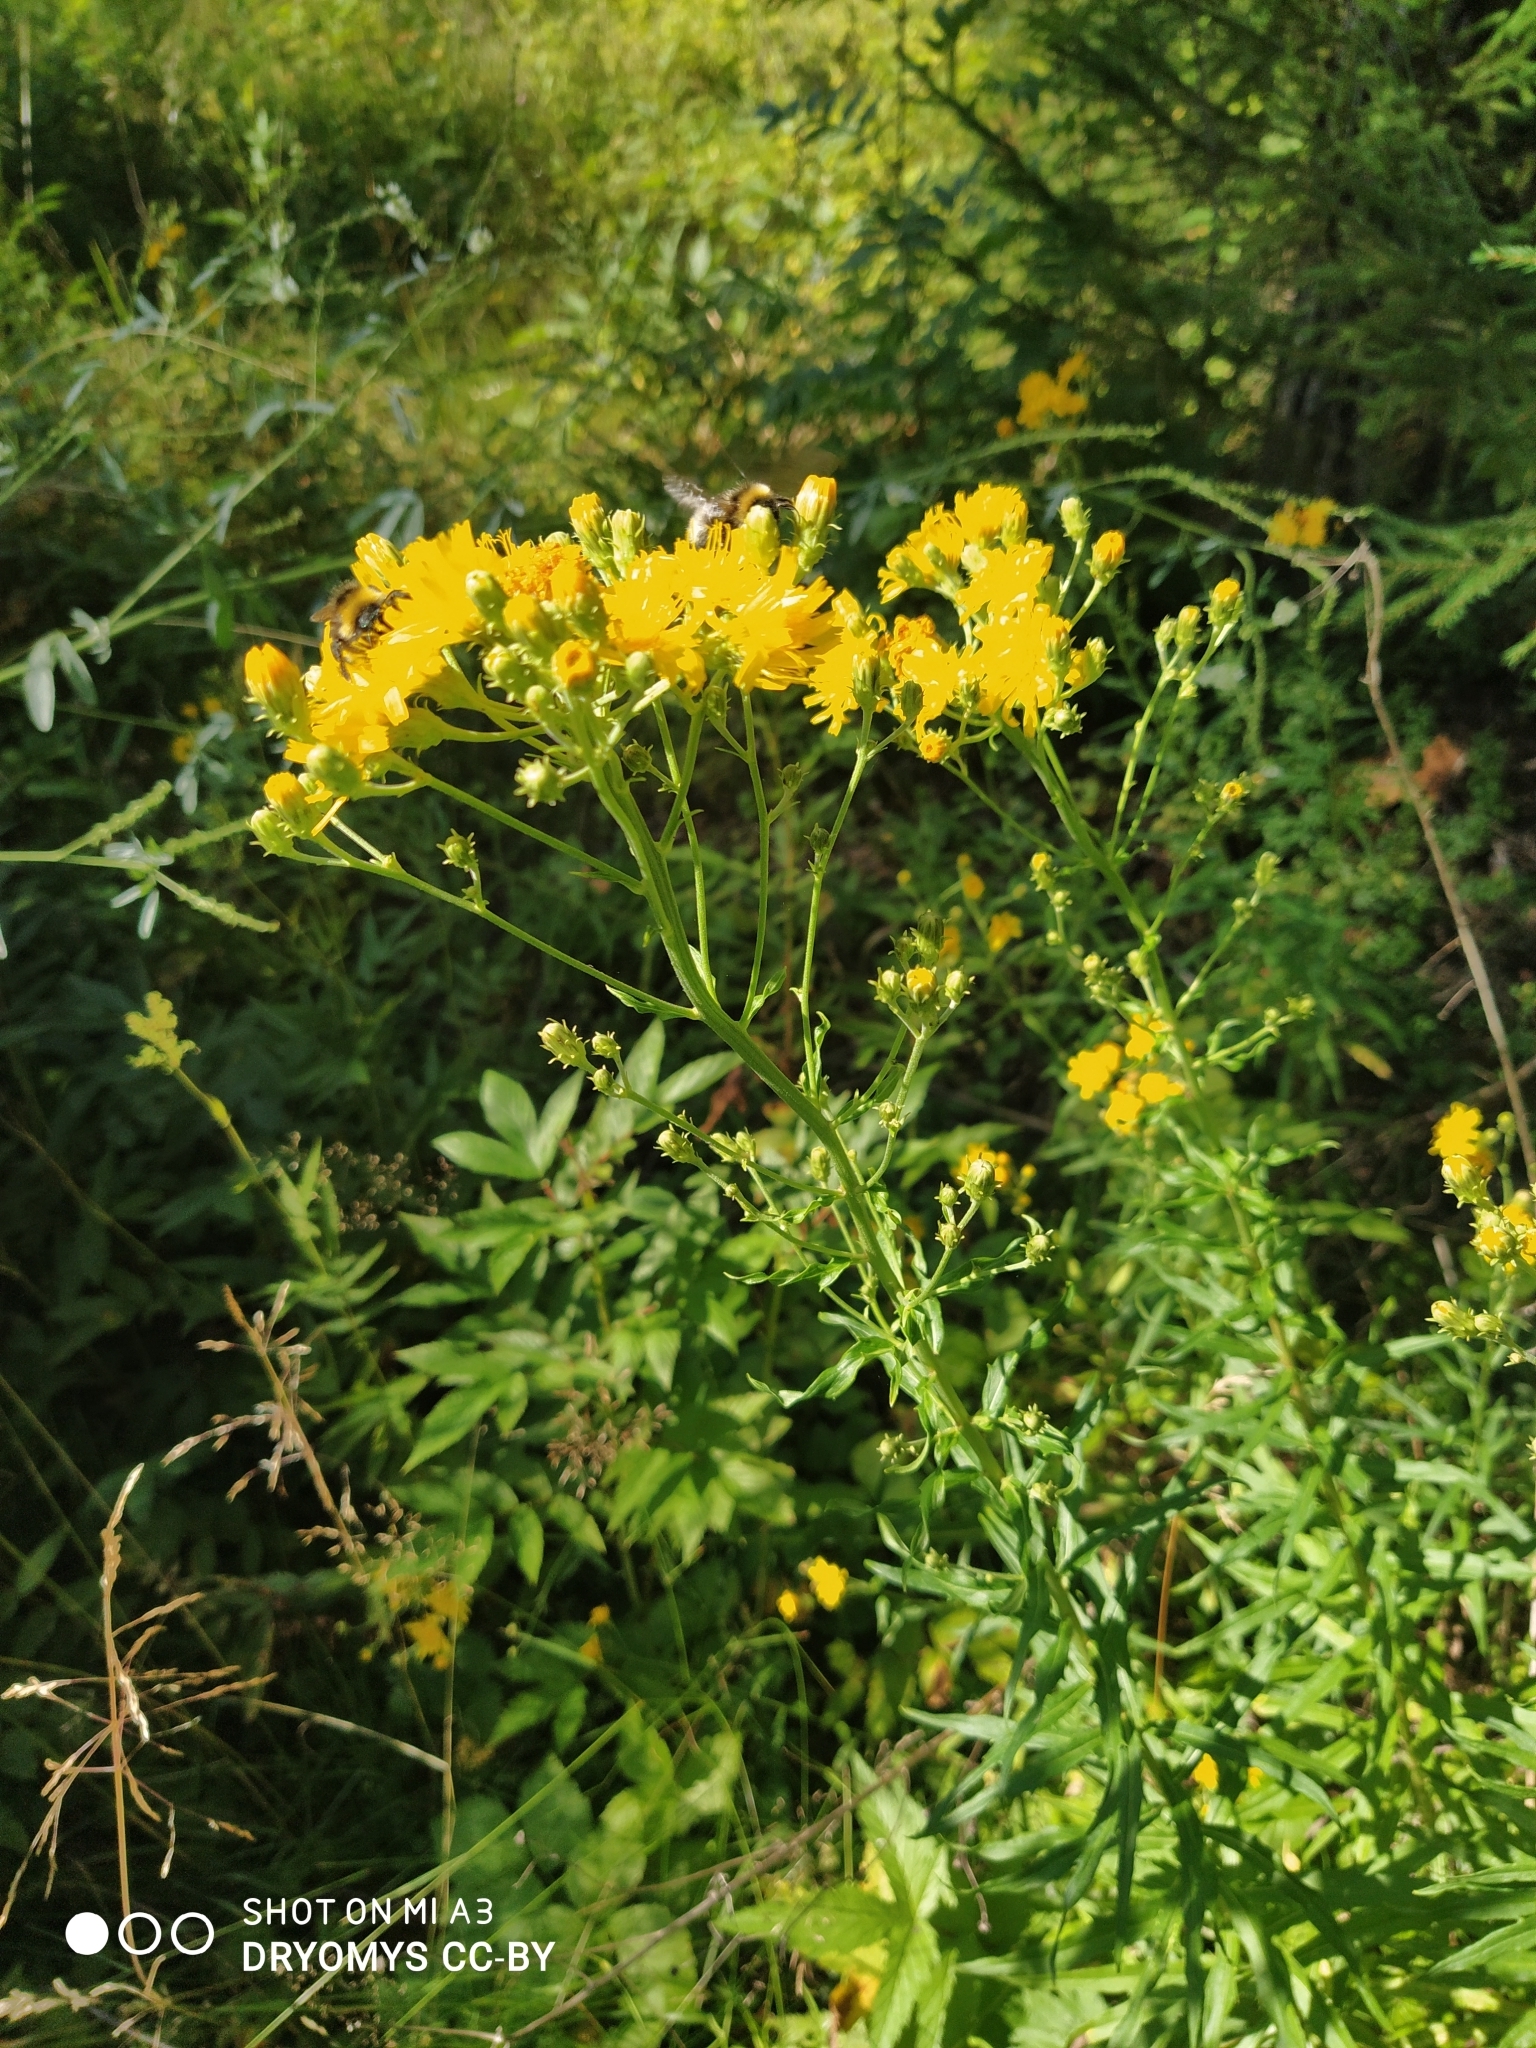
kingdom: Plantae
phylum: Tracheophyta
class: Magnoliopsida
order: Asterales
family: Asteraceae
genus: Hieracium
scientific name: Hieracium umbellatum
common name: Northern hawkweed
